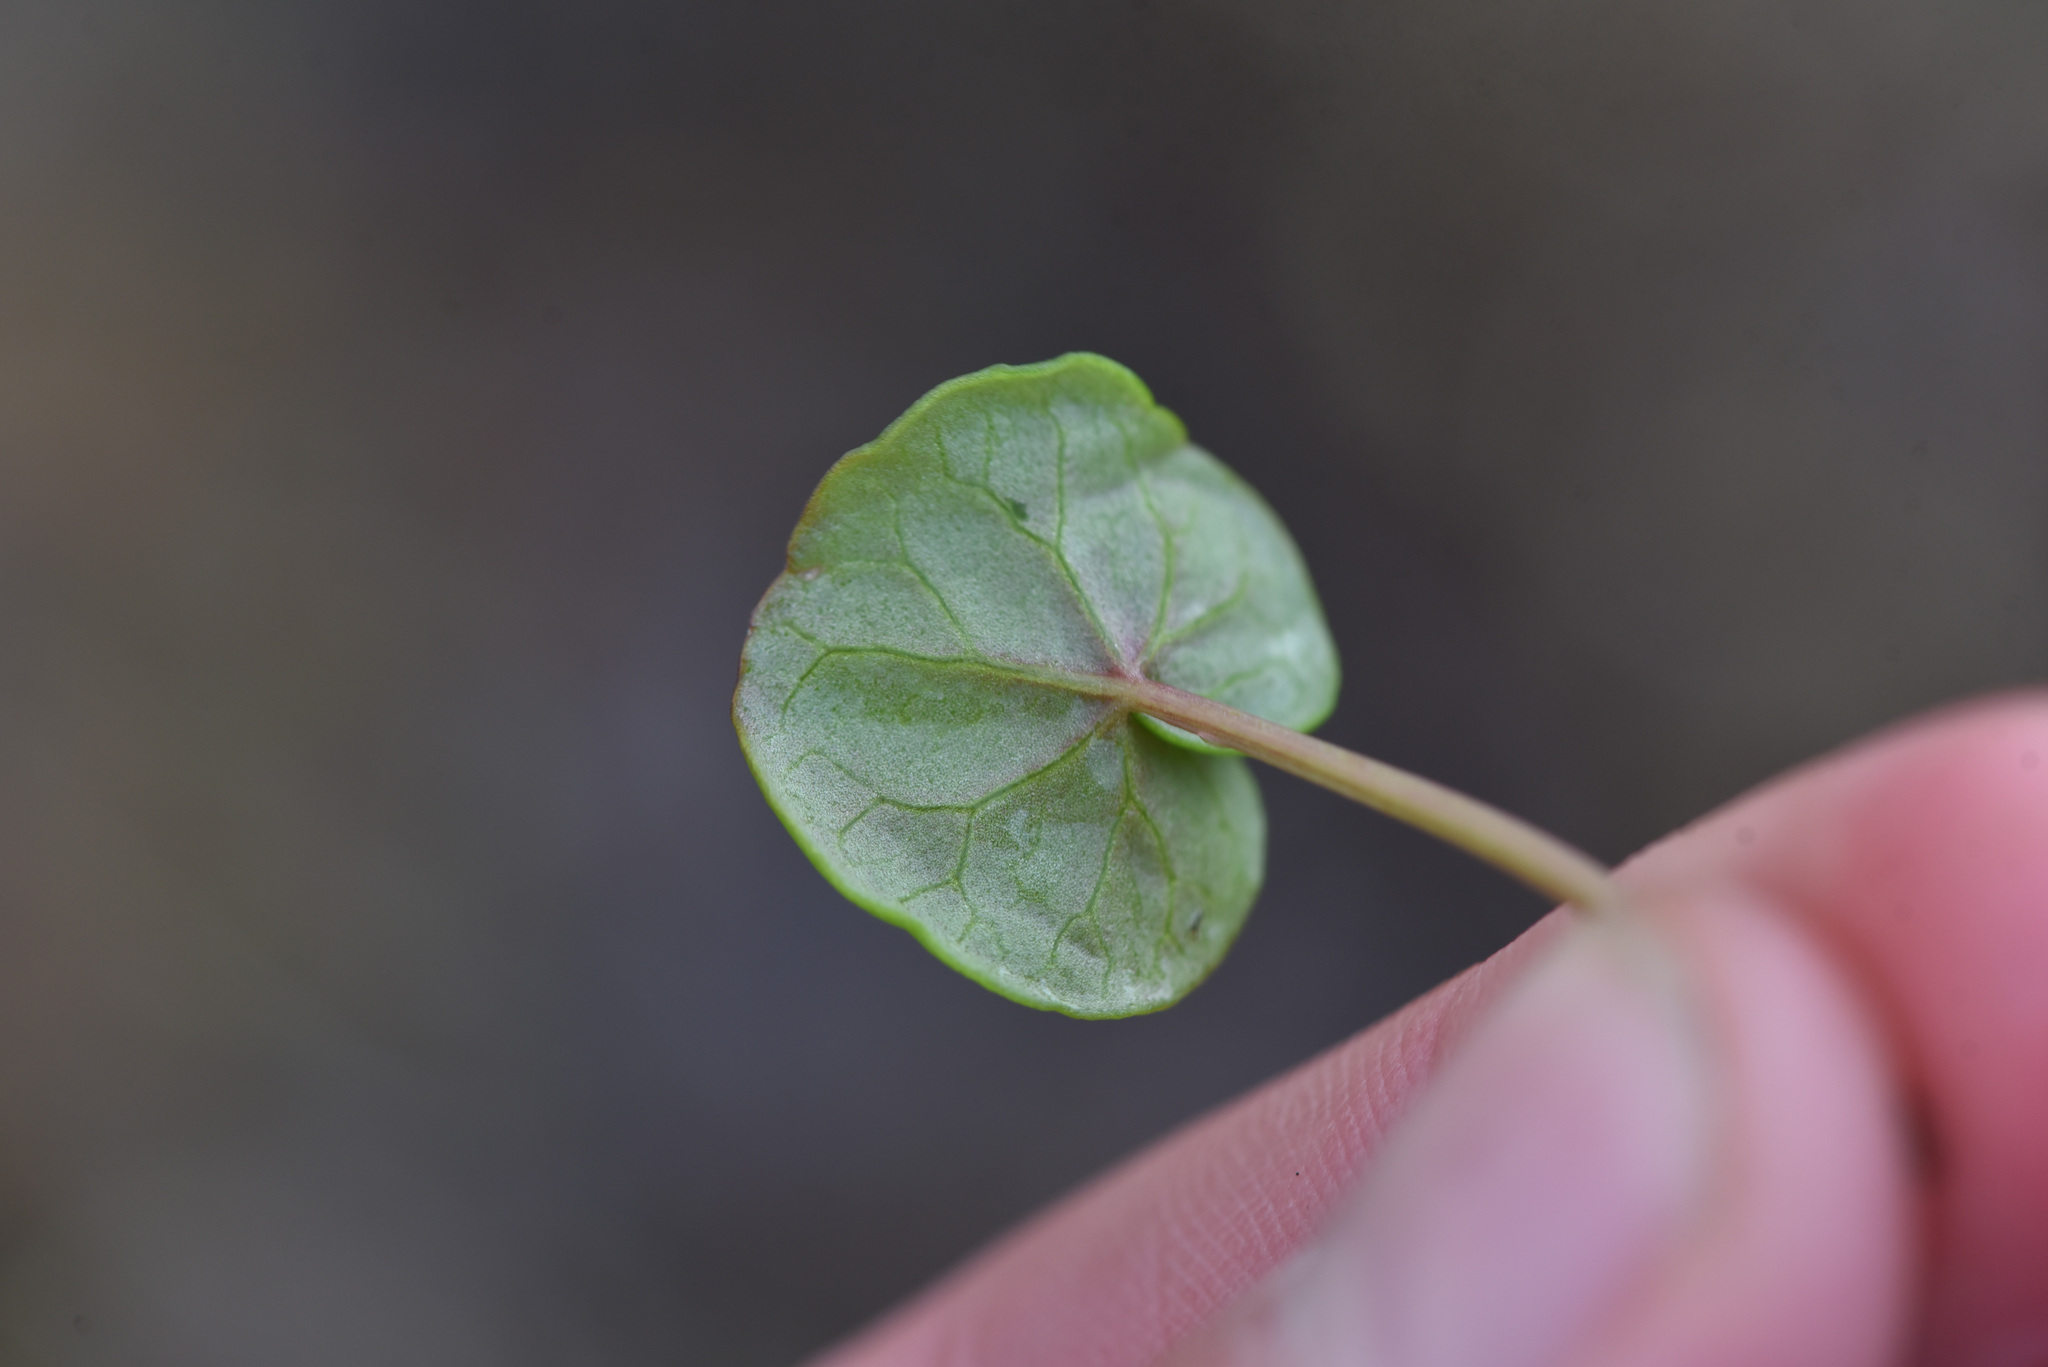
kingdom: Plantae
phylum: Tracheophyta
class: Magnoliopsida
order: Caryophyllales
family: Polygonaceae
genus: Oxyria
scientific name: Oxyria digyna
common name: Alpine mountain-sorrel
